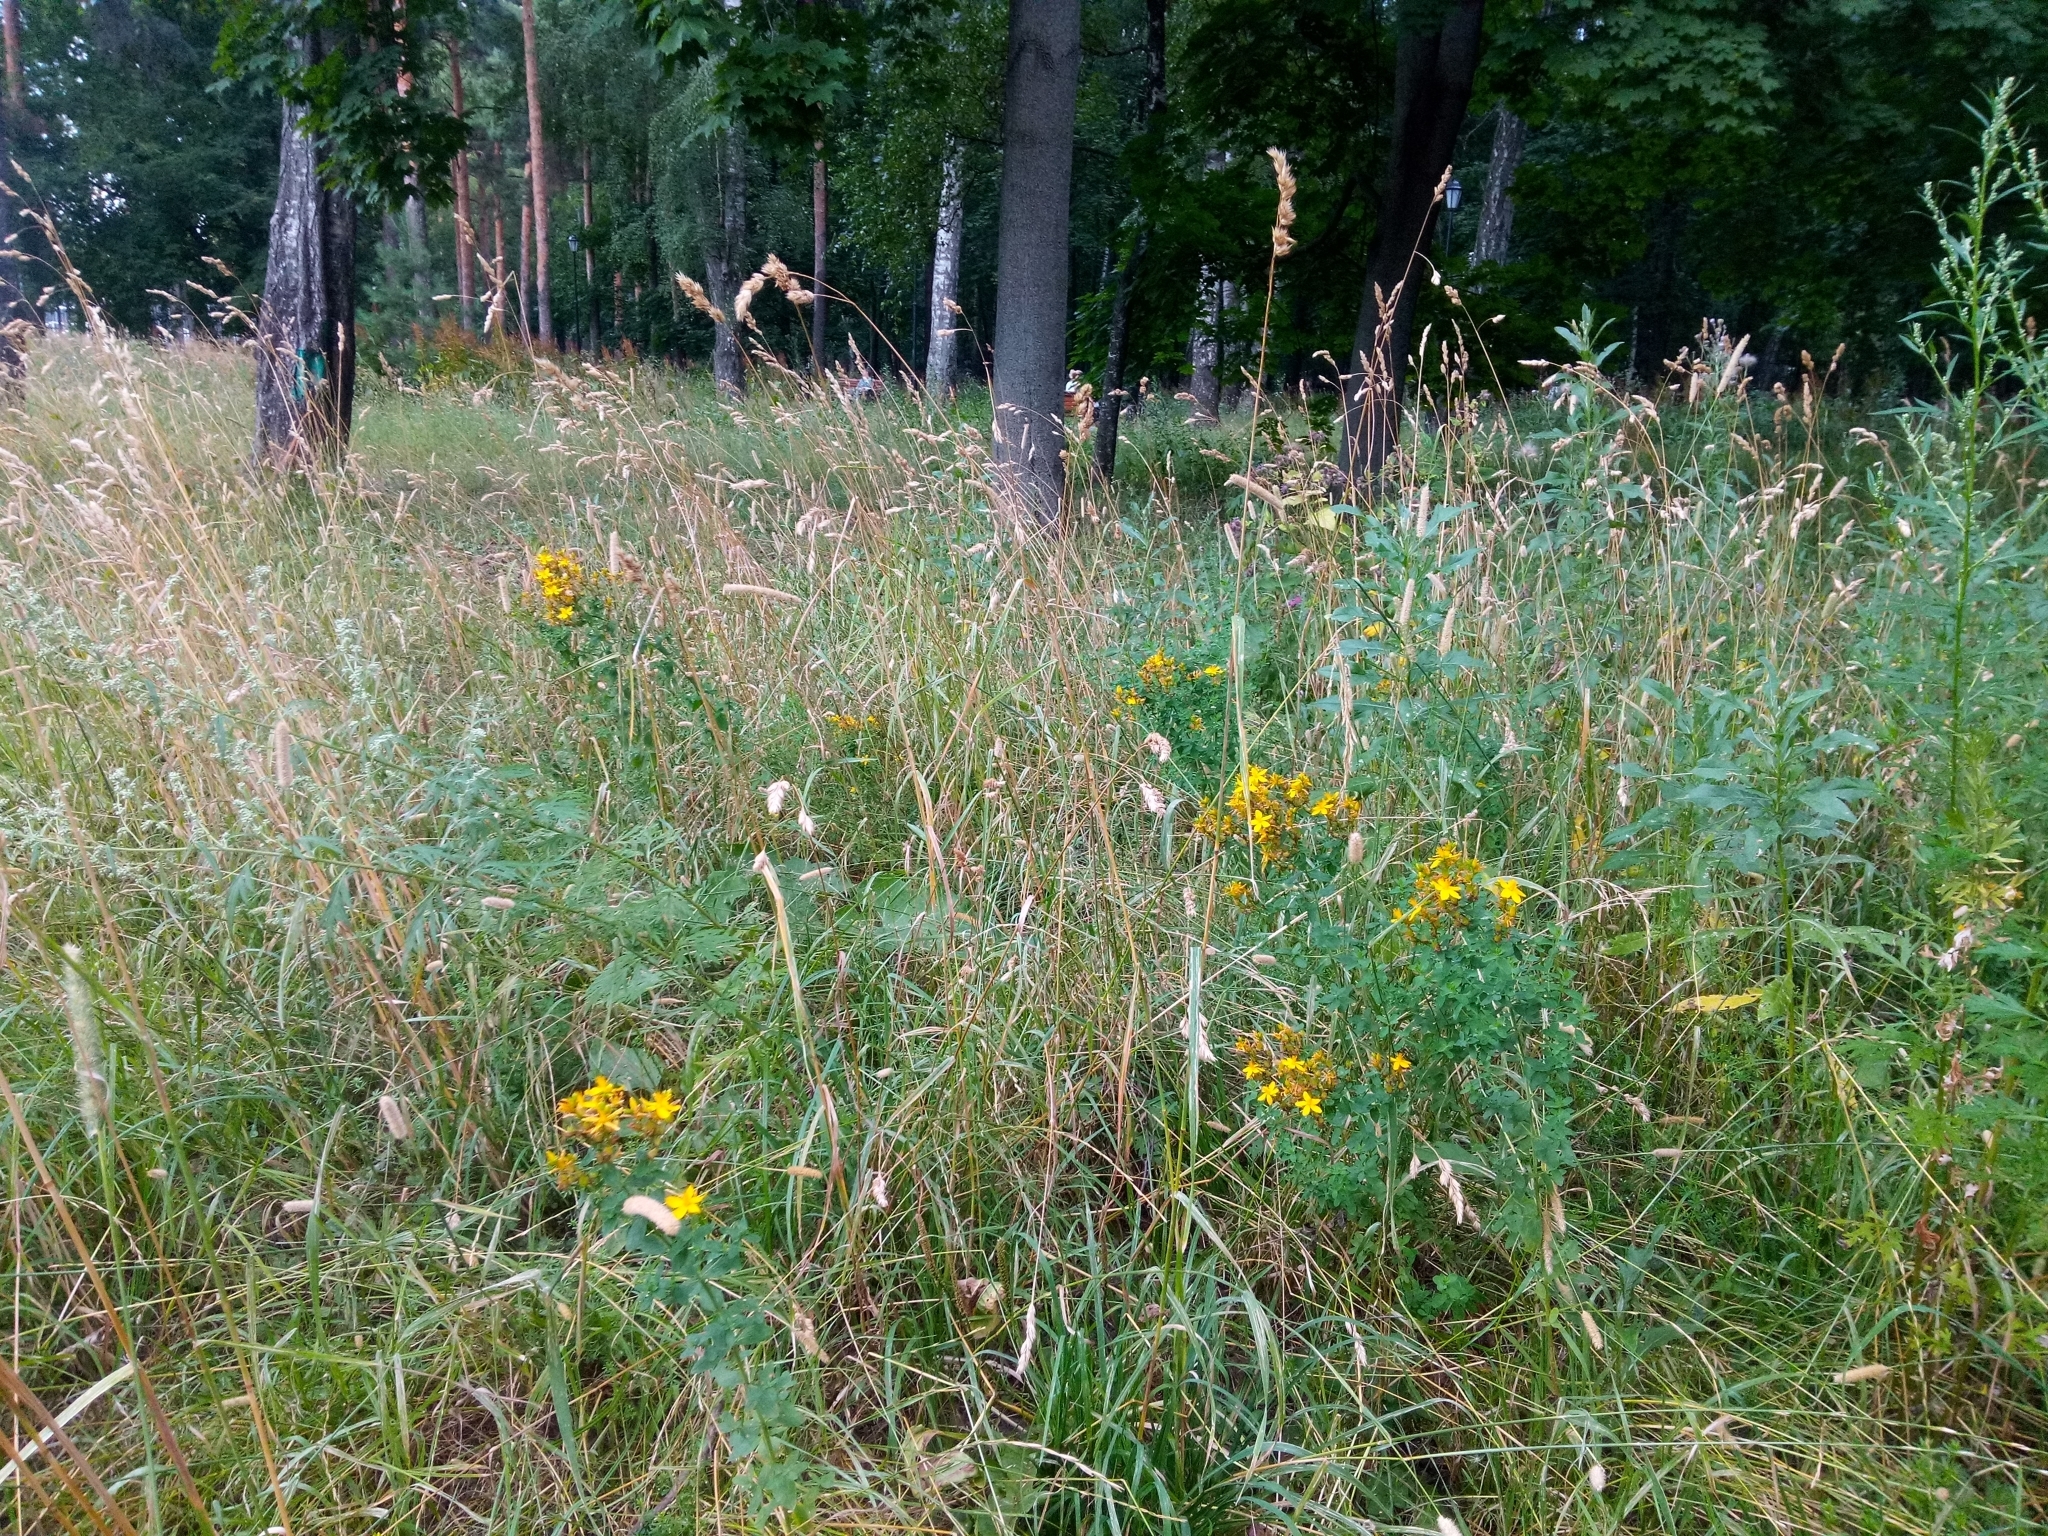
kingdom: Plantae
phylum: Tracheophyta
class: Magnoliopsida
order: Malpighiales
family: Hypericaceae
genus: Hypericum
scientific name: Hypericum perforatum
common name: Common st. johnswort
